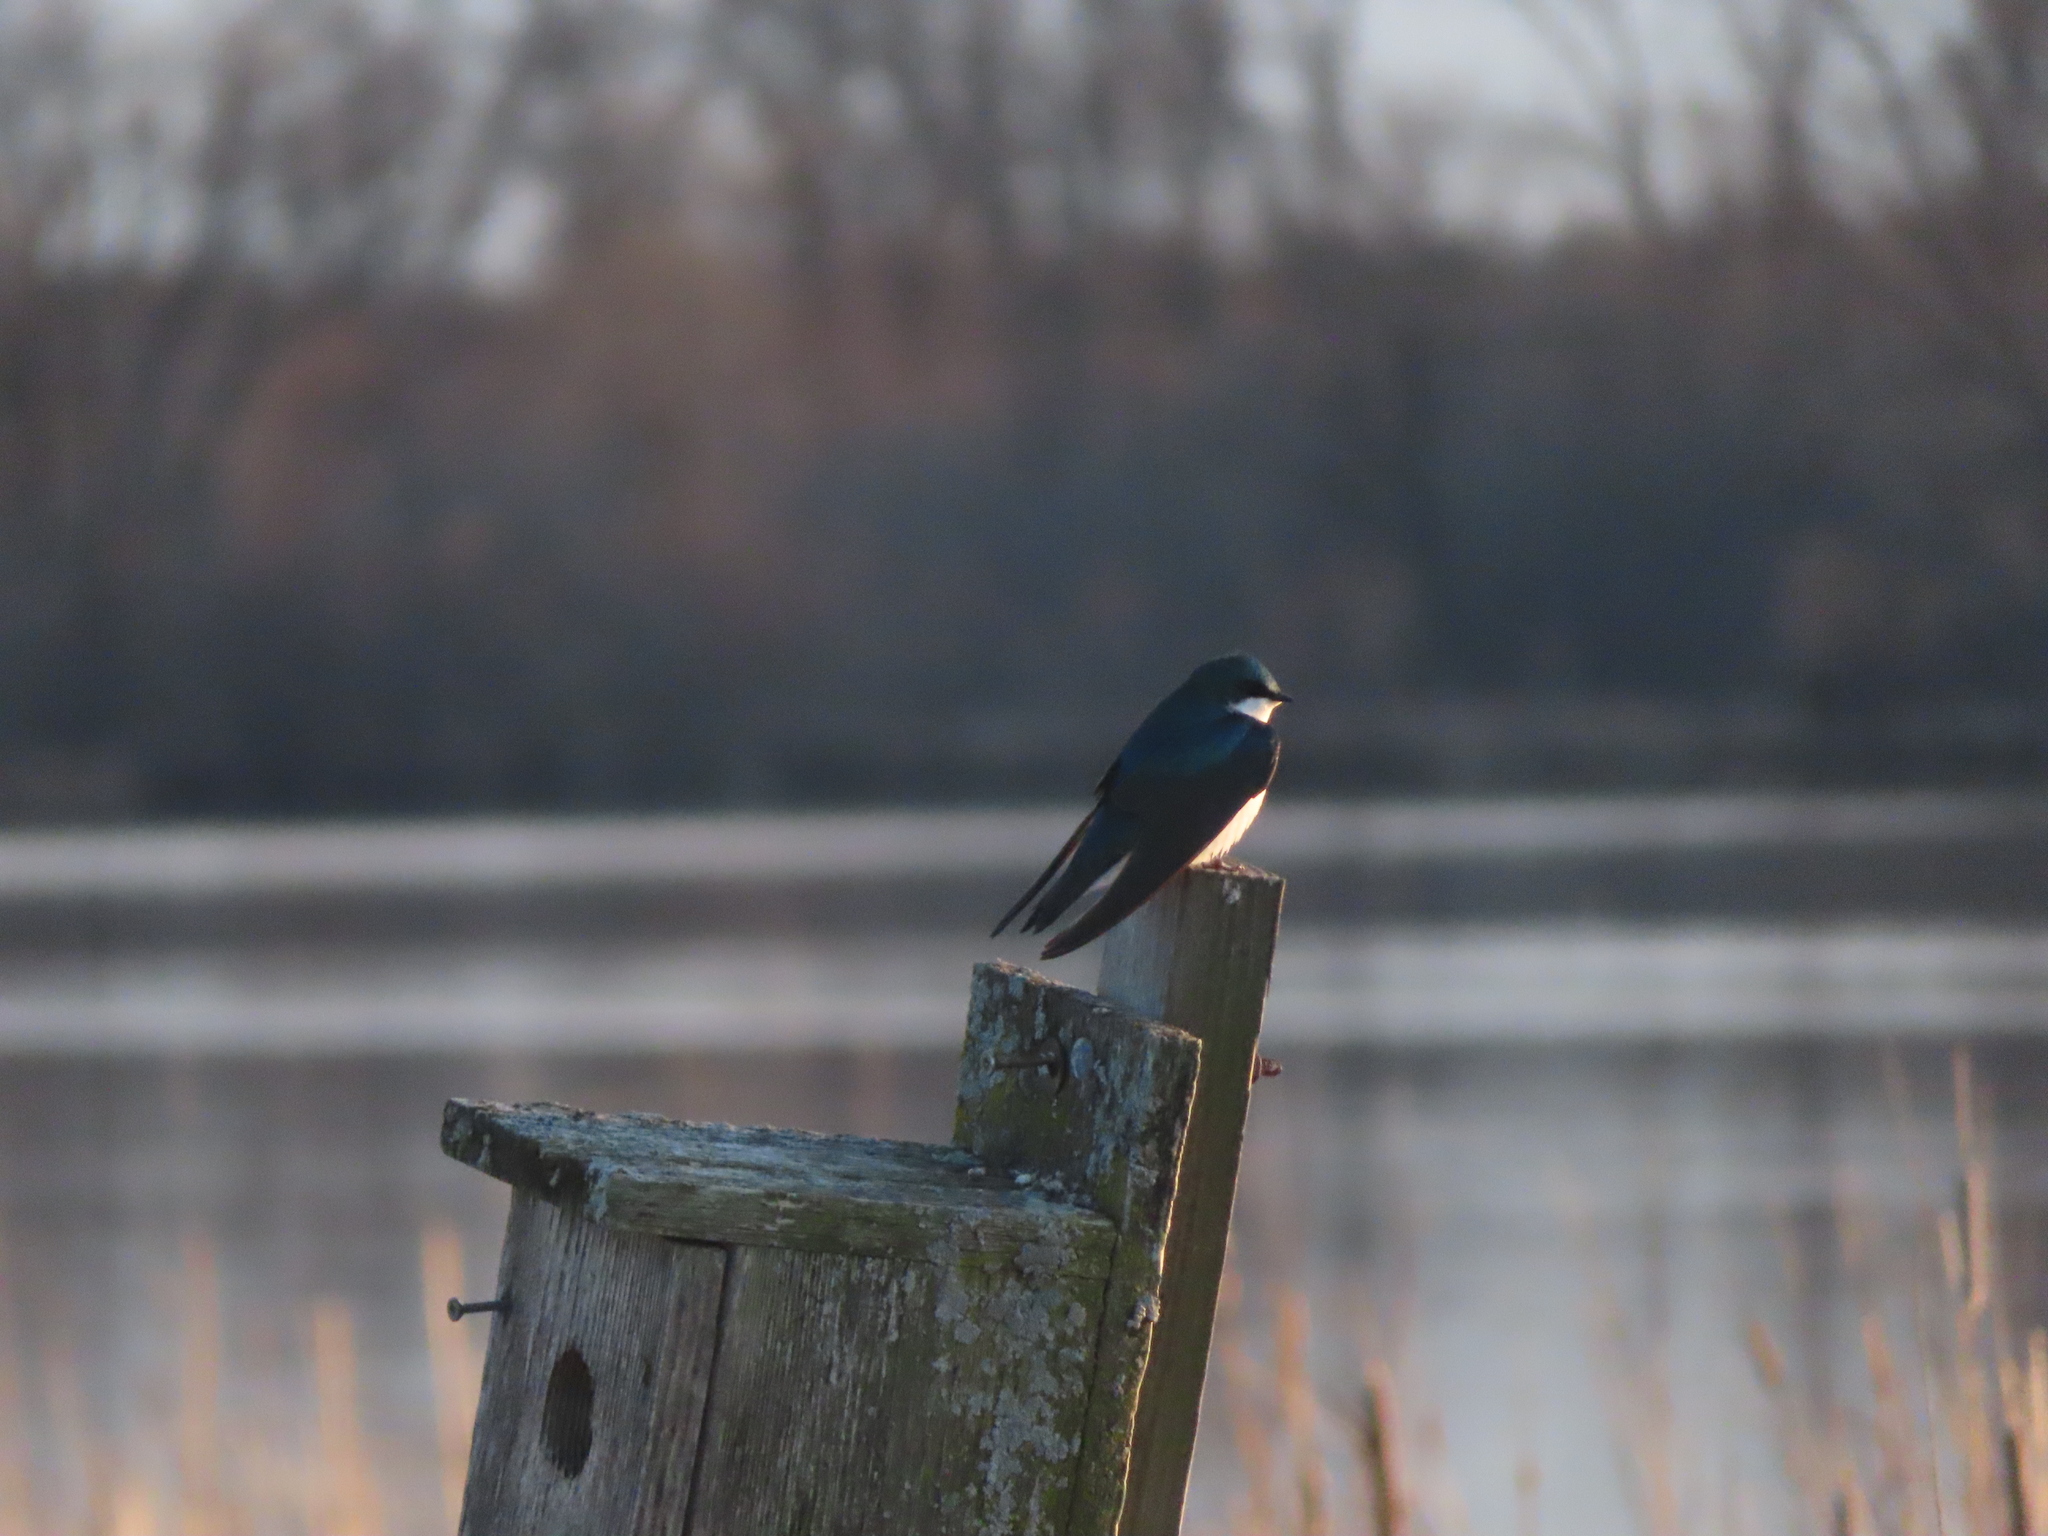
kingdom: Animalia
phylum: Chordata
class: Aves
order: Passeriformes
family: Hirundinidae
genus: Tachycineta
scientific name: Tachycineta bicolor
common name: Tree swallow
